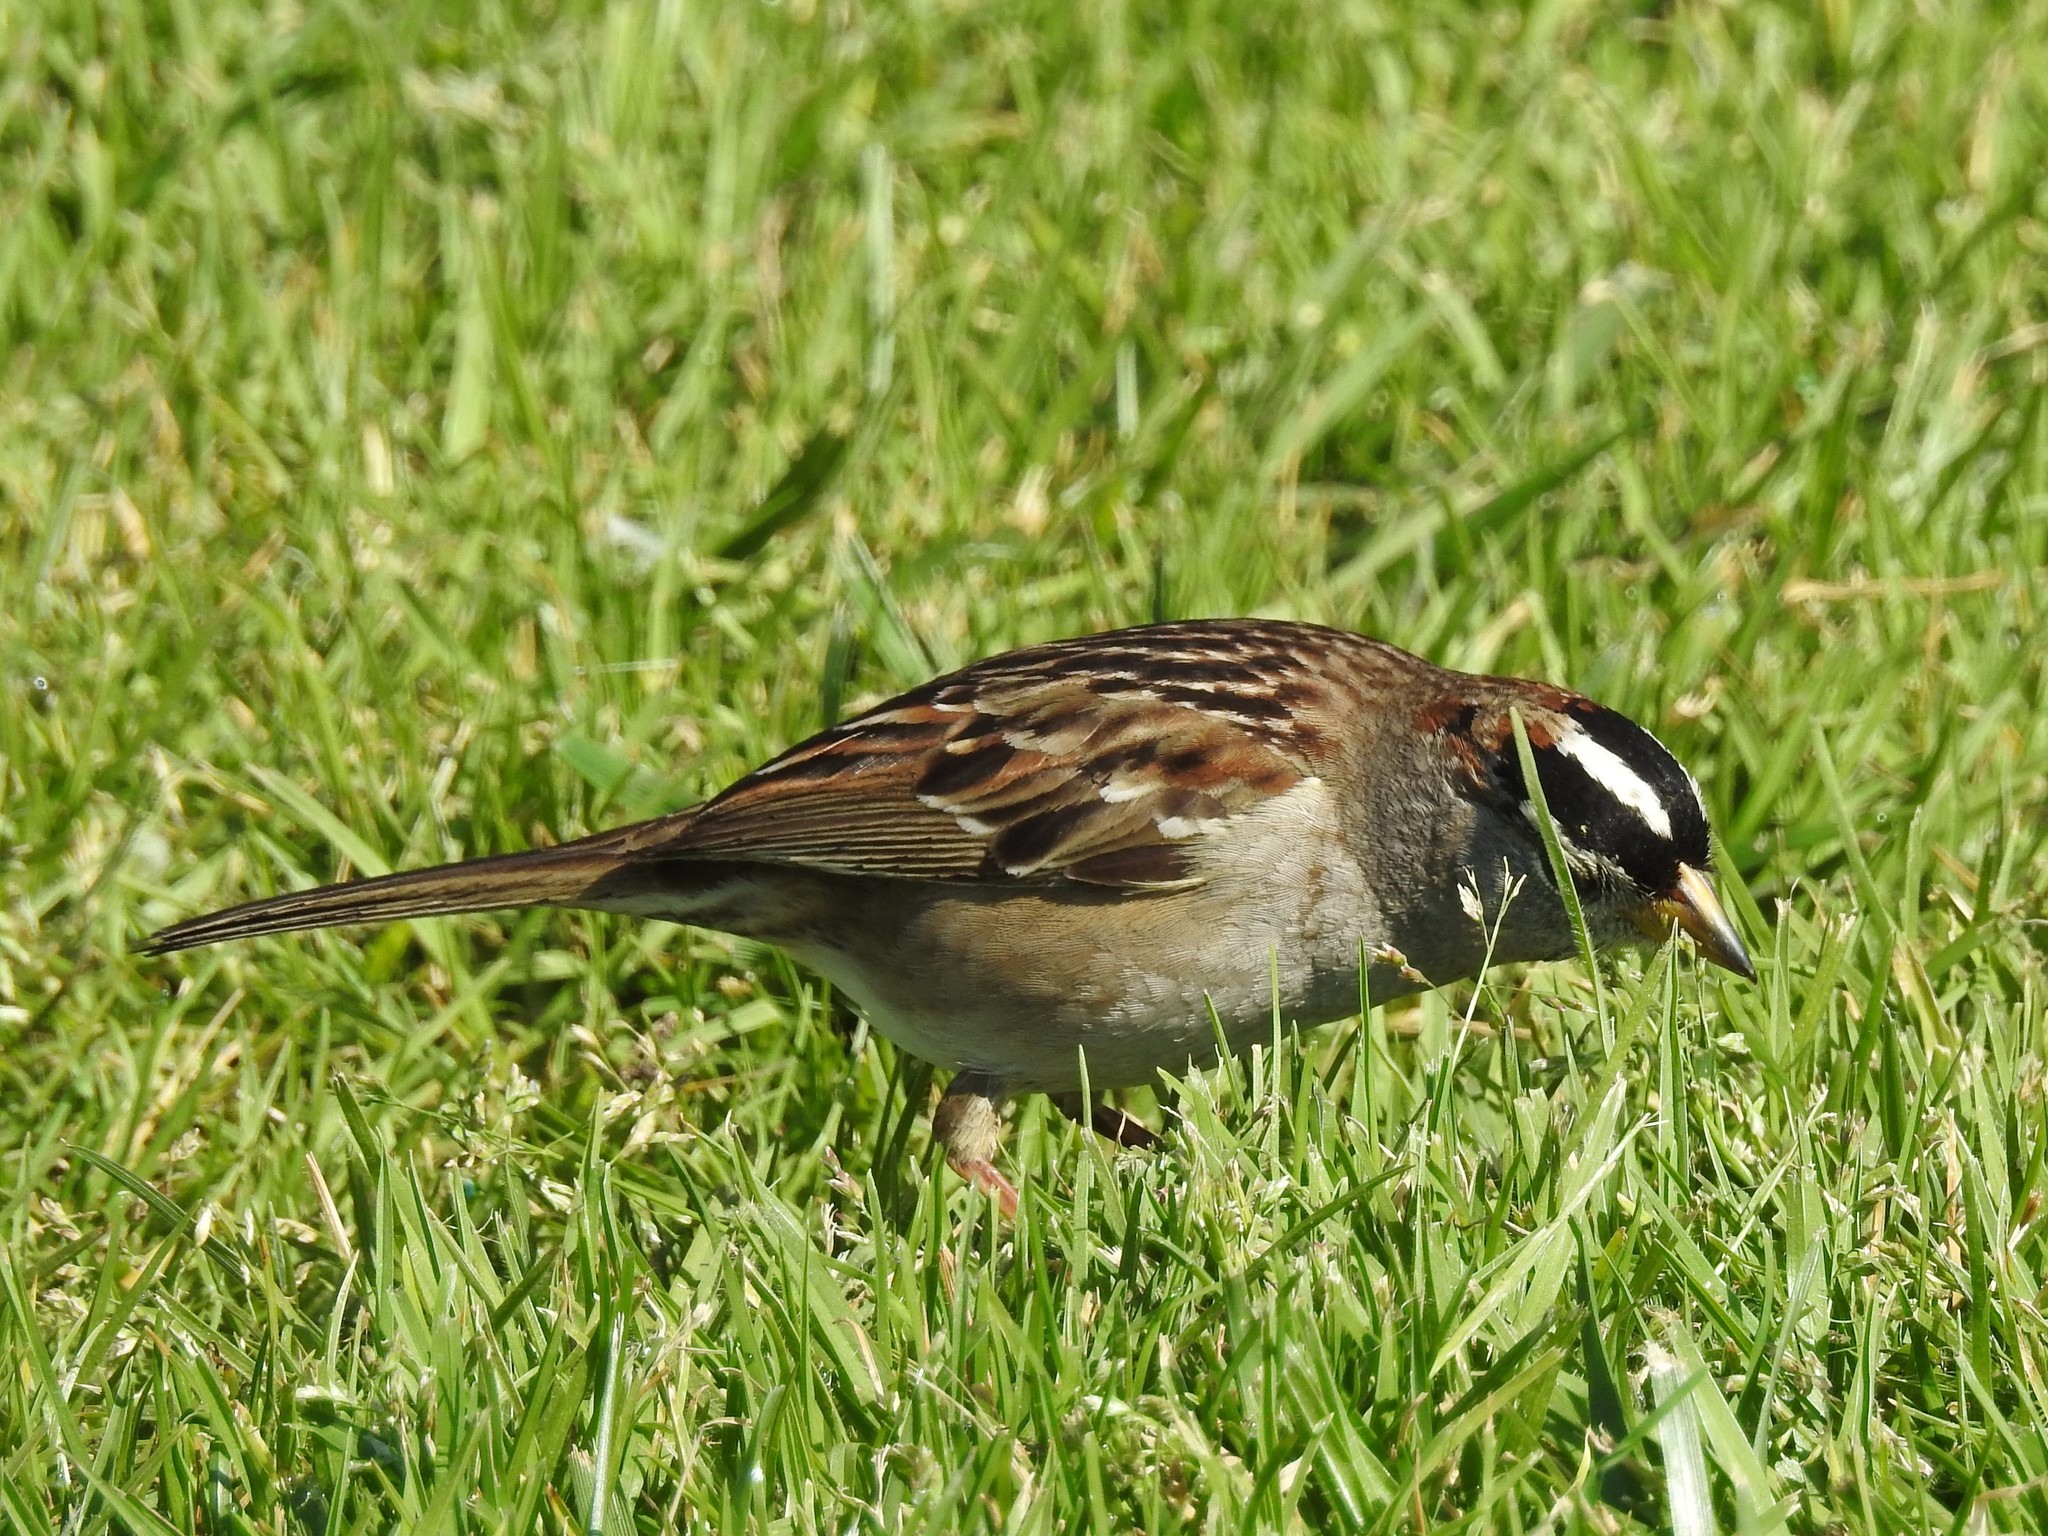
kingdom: Animalia
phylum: Chordata
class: Aves
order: Passeriformes
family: Passerellidae
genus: Zonotrichia
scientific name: Zonotrichia leucophrys
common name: White-crowned sparrow
